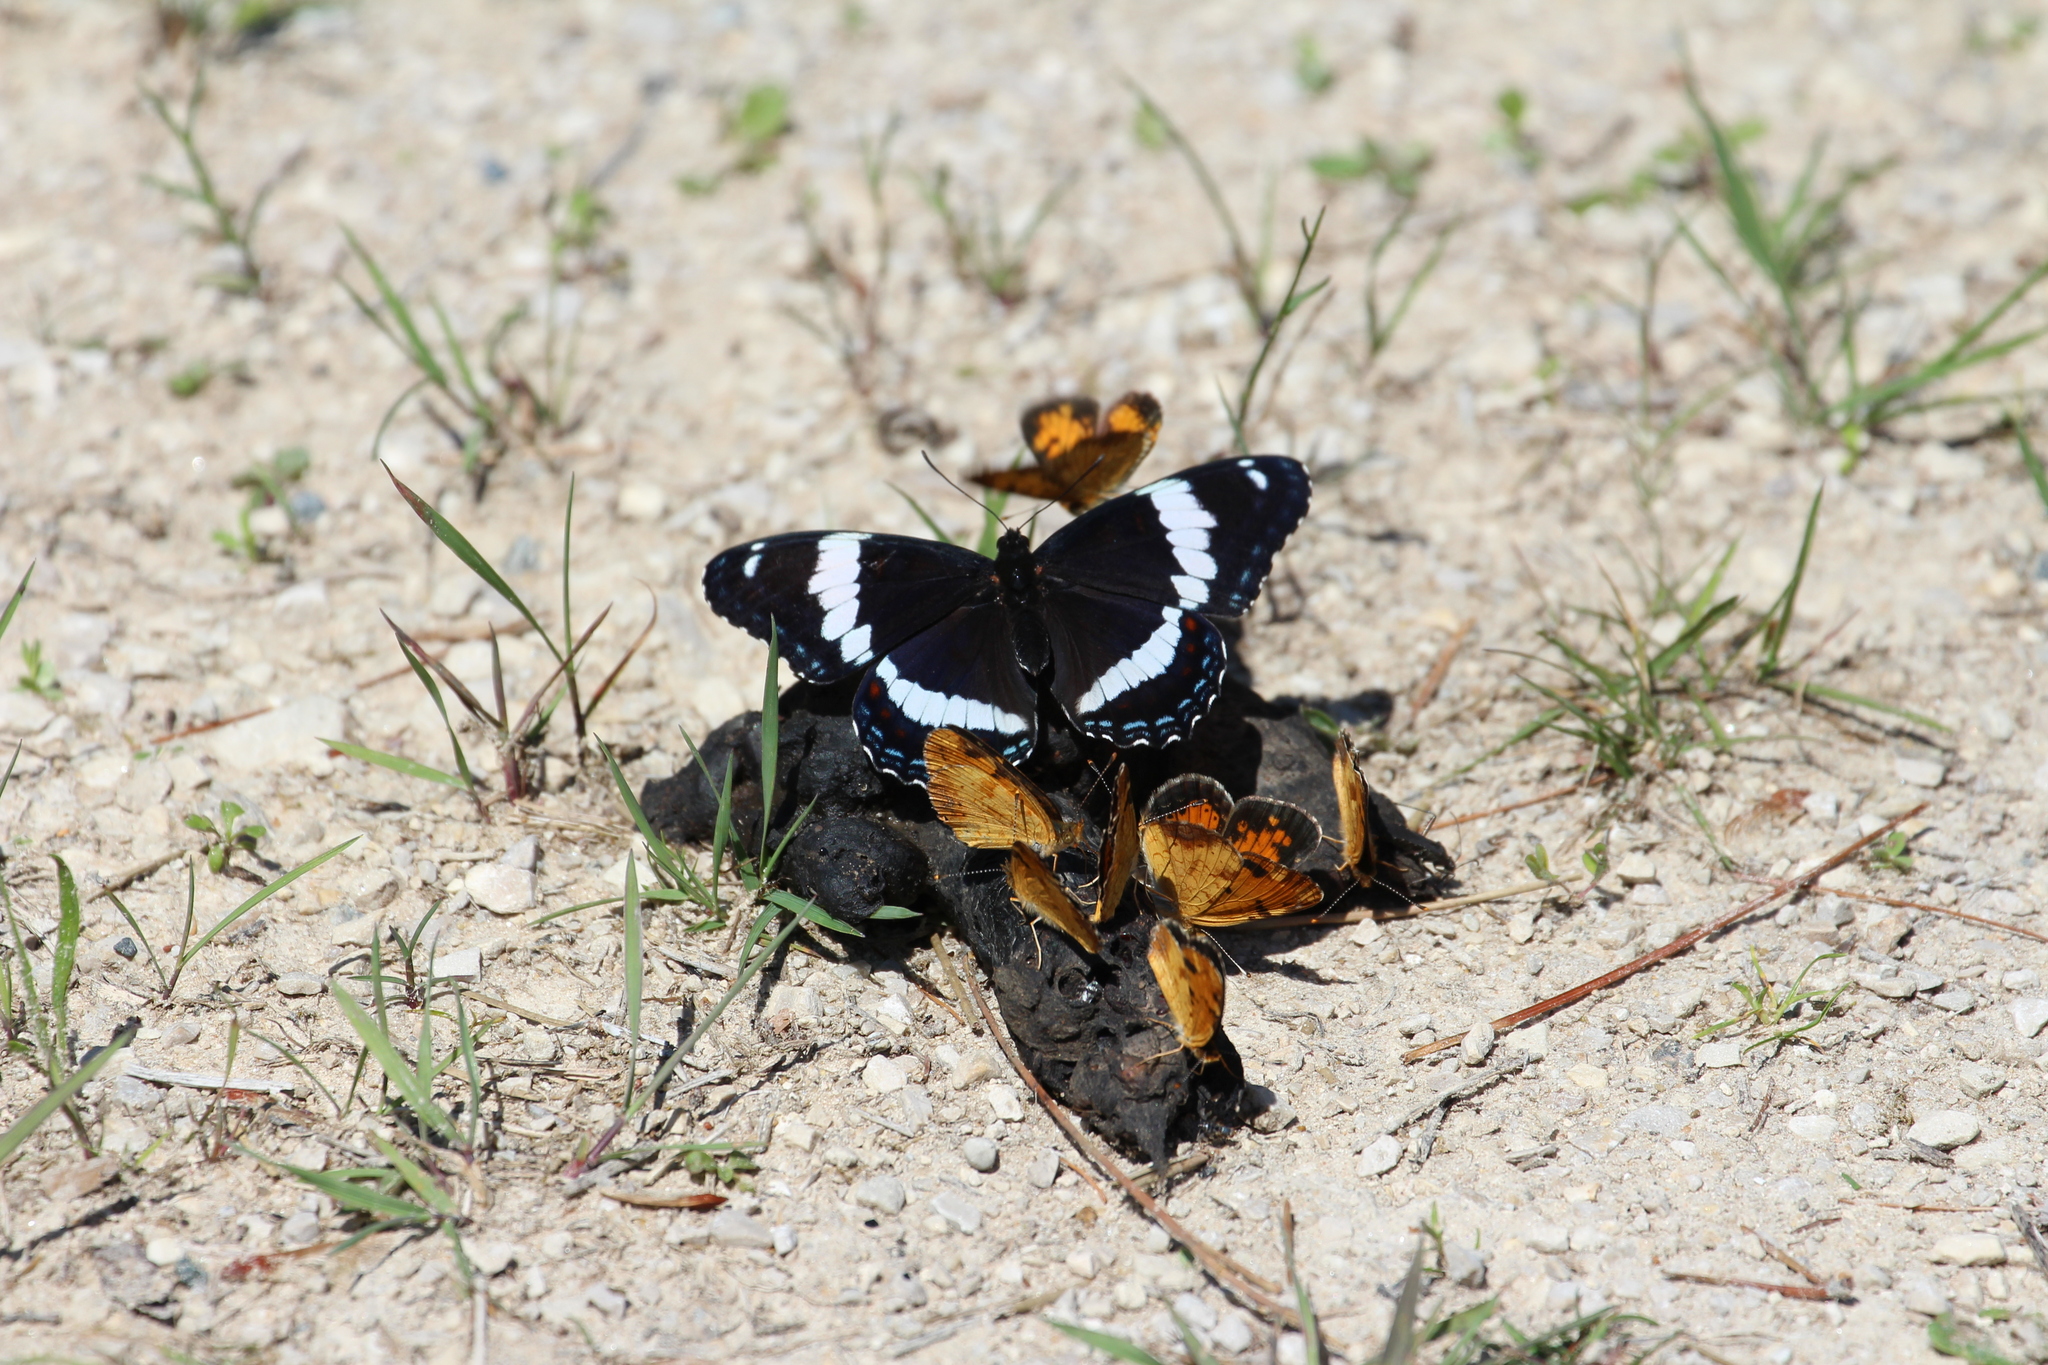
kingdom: Animalia
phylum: Arthropoda
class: Insecta
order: Lepidoptera
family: Nymphalidae
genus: Limenitis
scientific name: Limenitis arthemis
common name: Red-spotted admiral
